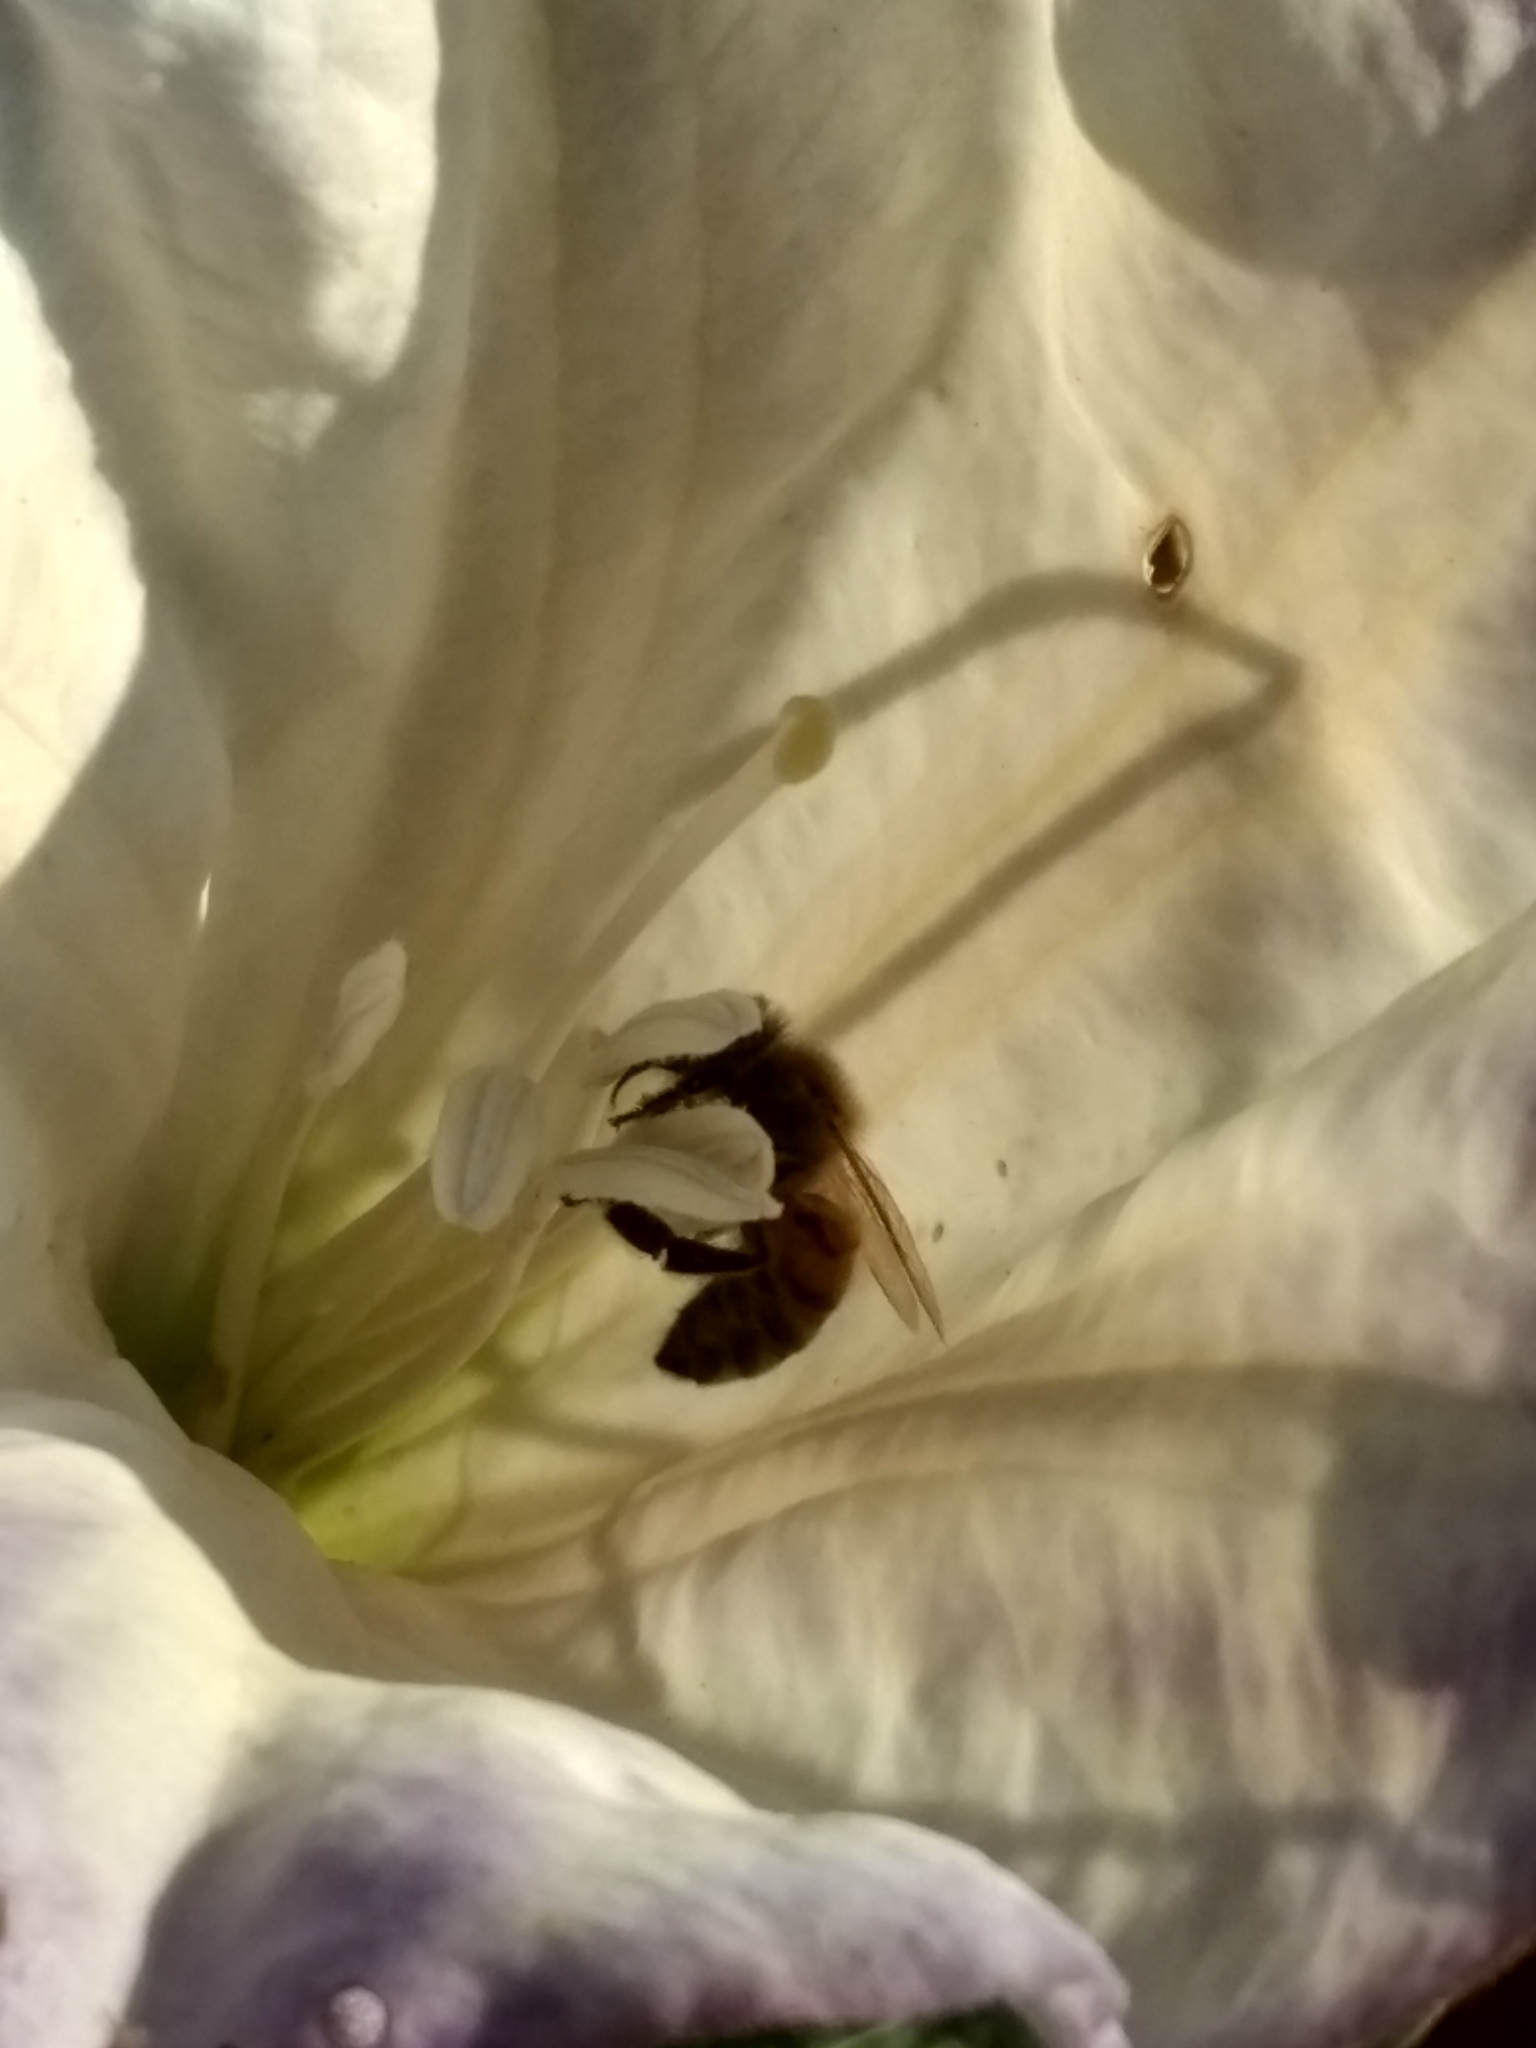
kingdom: Animalia
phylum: Arthropoda
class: Insecta
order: Hymenoptera
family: Apidae
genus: Apis
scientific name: Apis mellifera
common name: Honey bee
